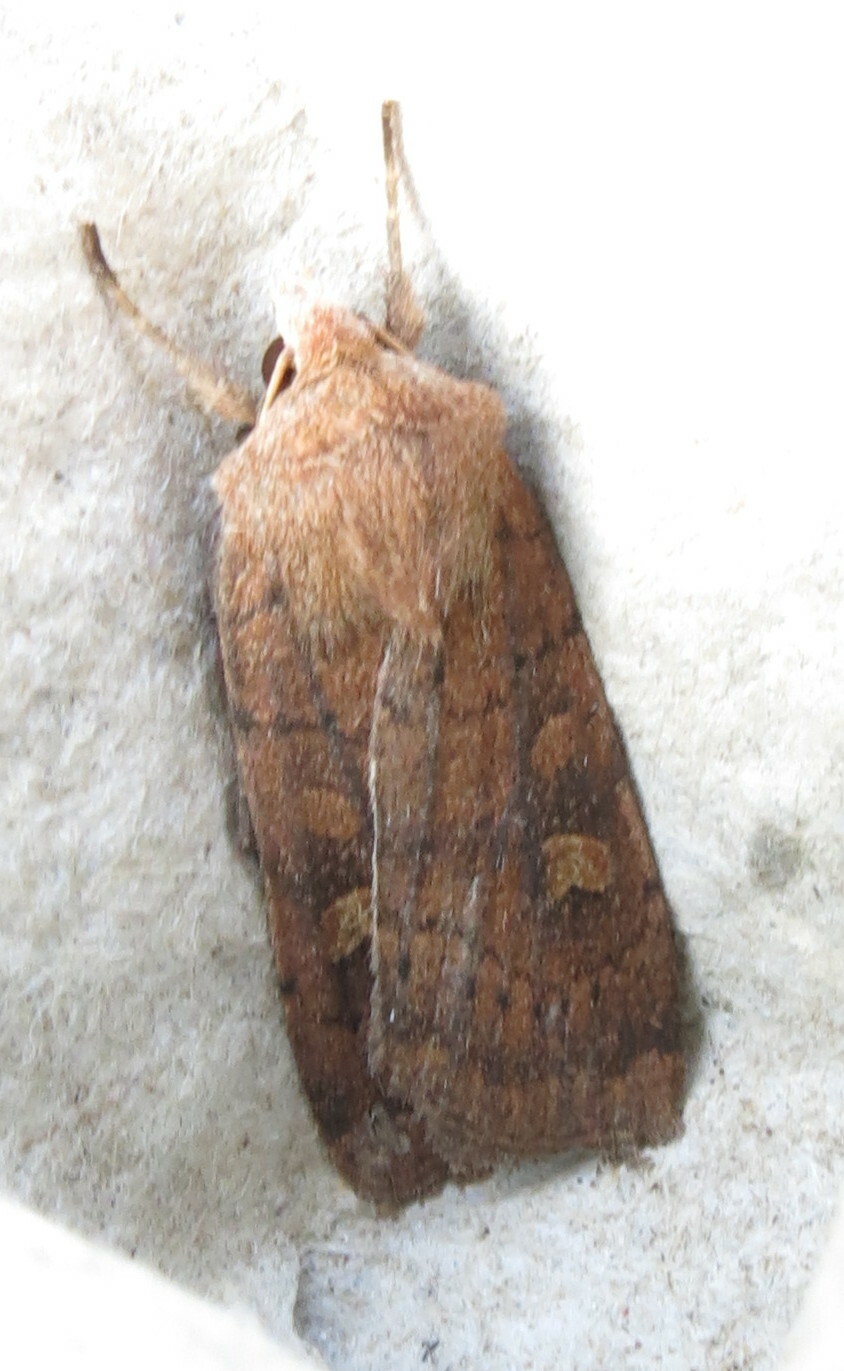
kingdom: Animalia
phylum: Arthropoda
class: Insecta
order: Lepidoptera
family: Noctuidae
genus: Xestia
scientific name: Xestia xanthographa
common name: Square-spot rustic
